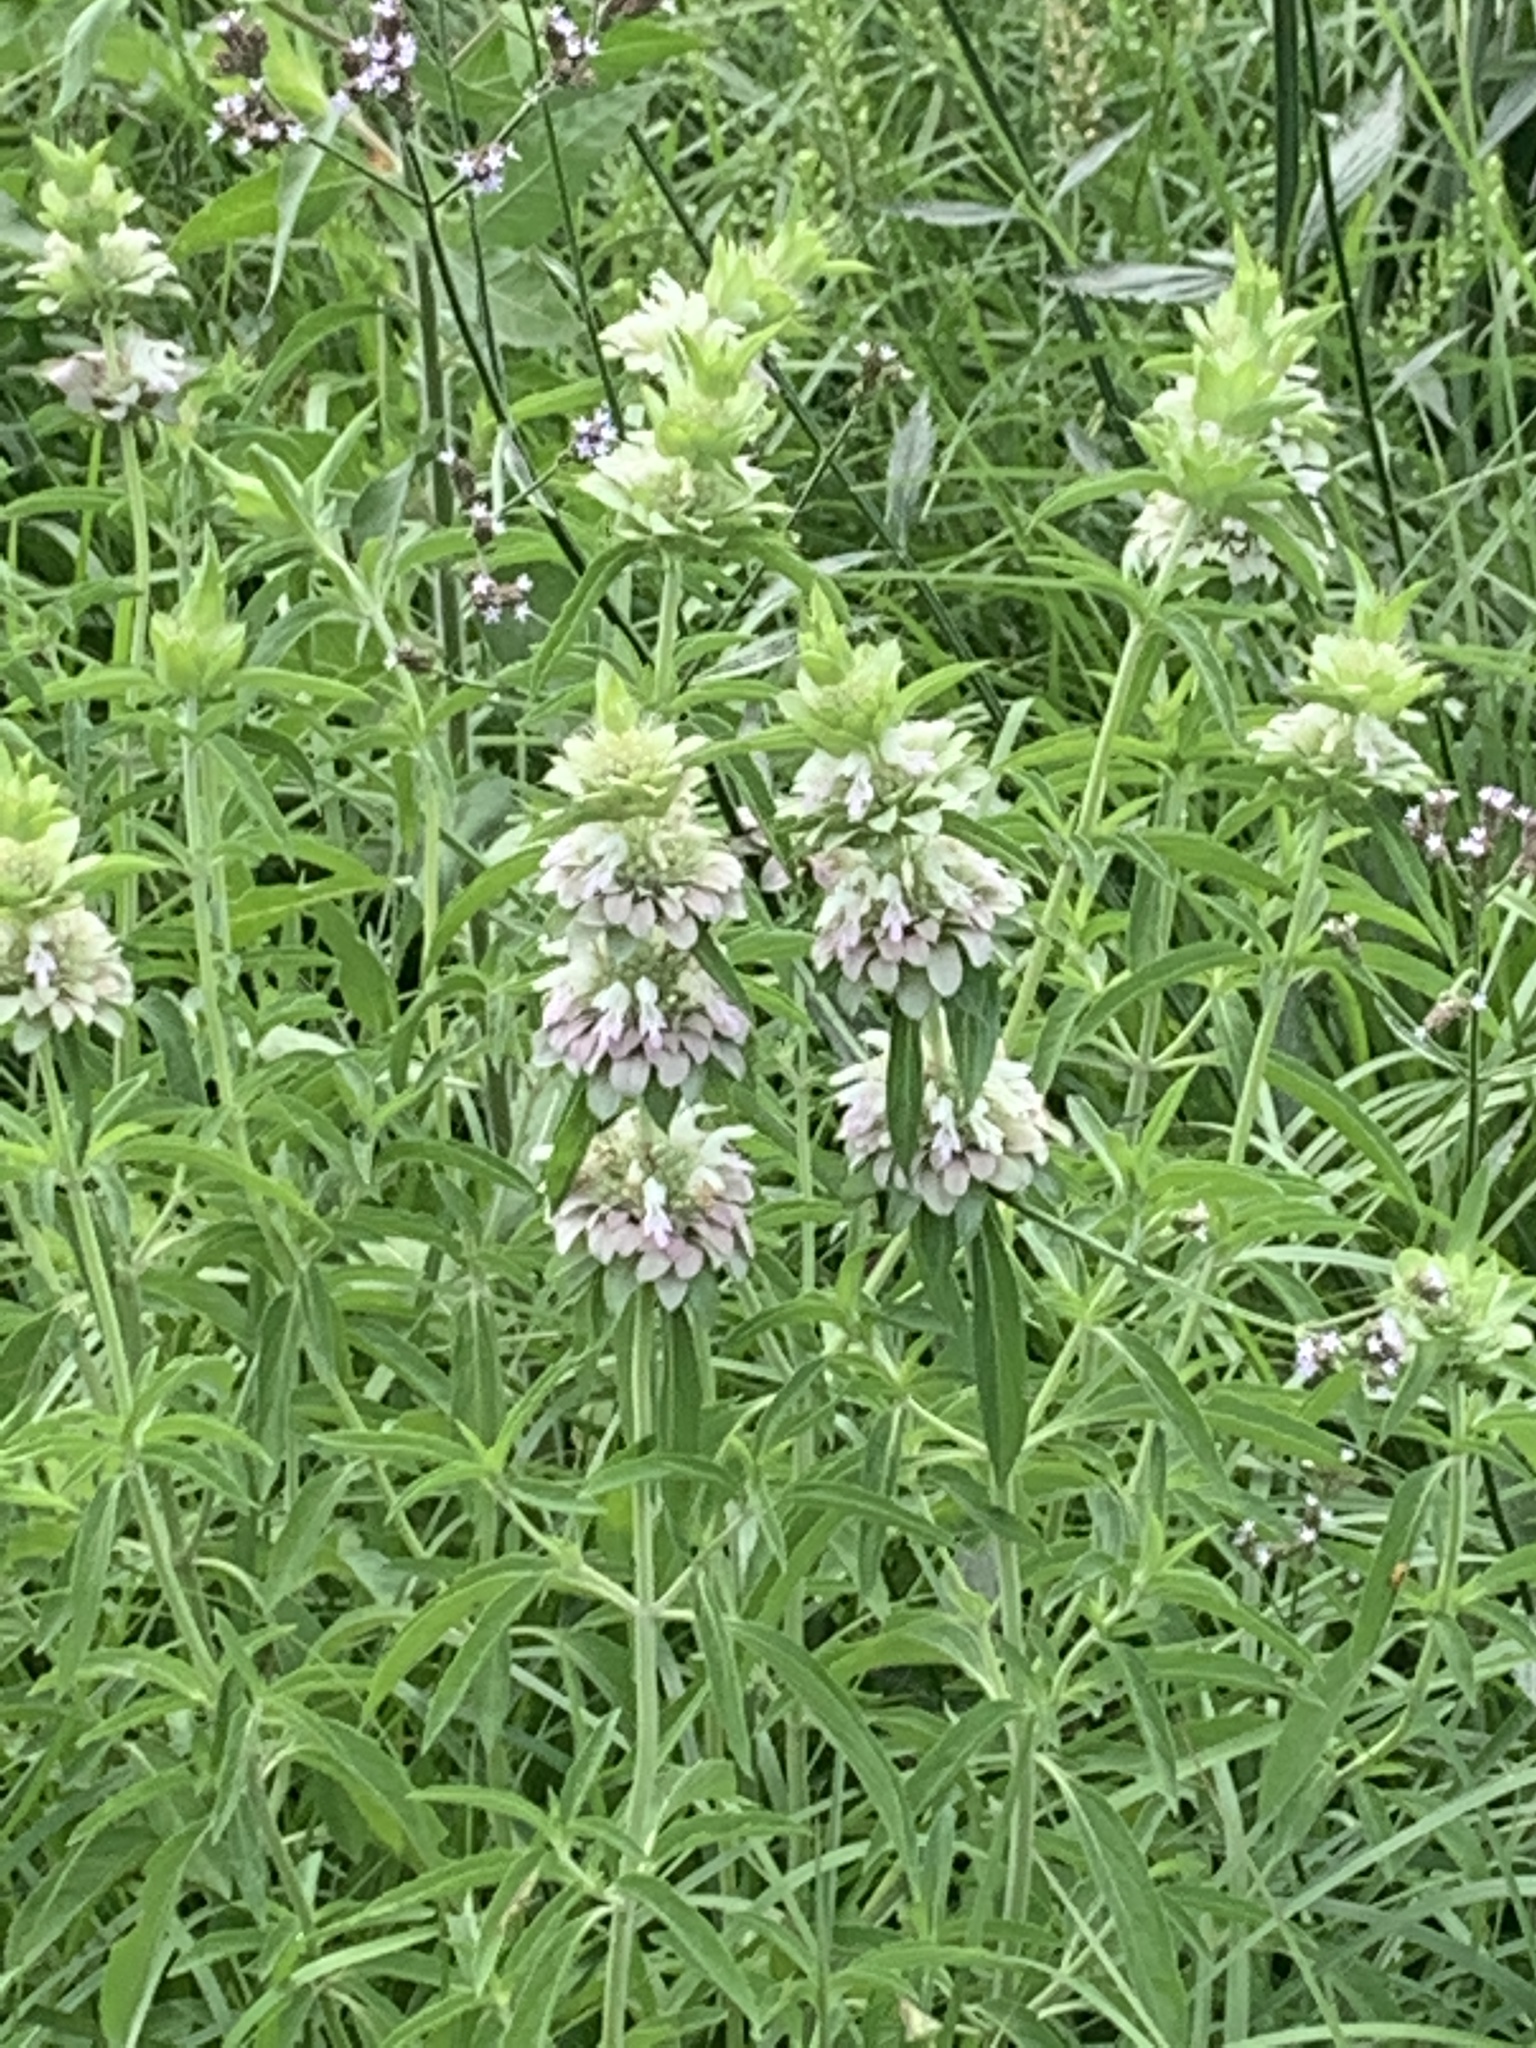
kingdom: Plantae
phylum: Tracheophyta
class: Magnoliopsida
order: Lamiales
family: Lamiaceae
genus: Monarda
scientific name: Monarda citriodora
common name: Lemon beebalm
